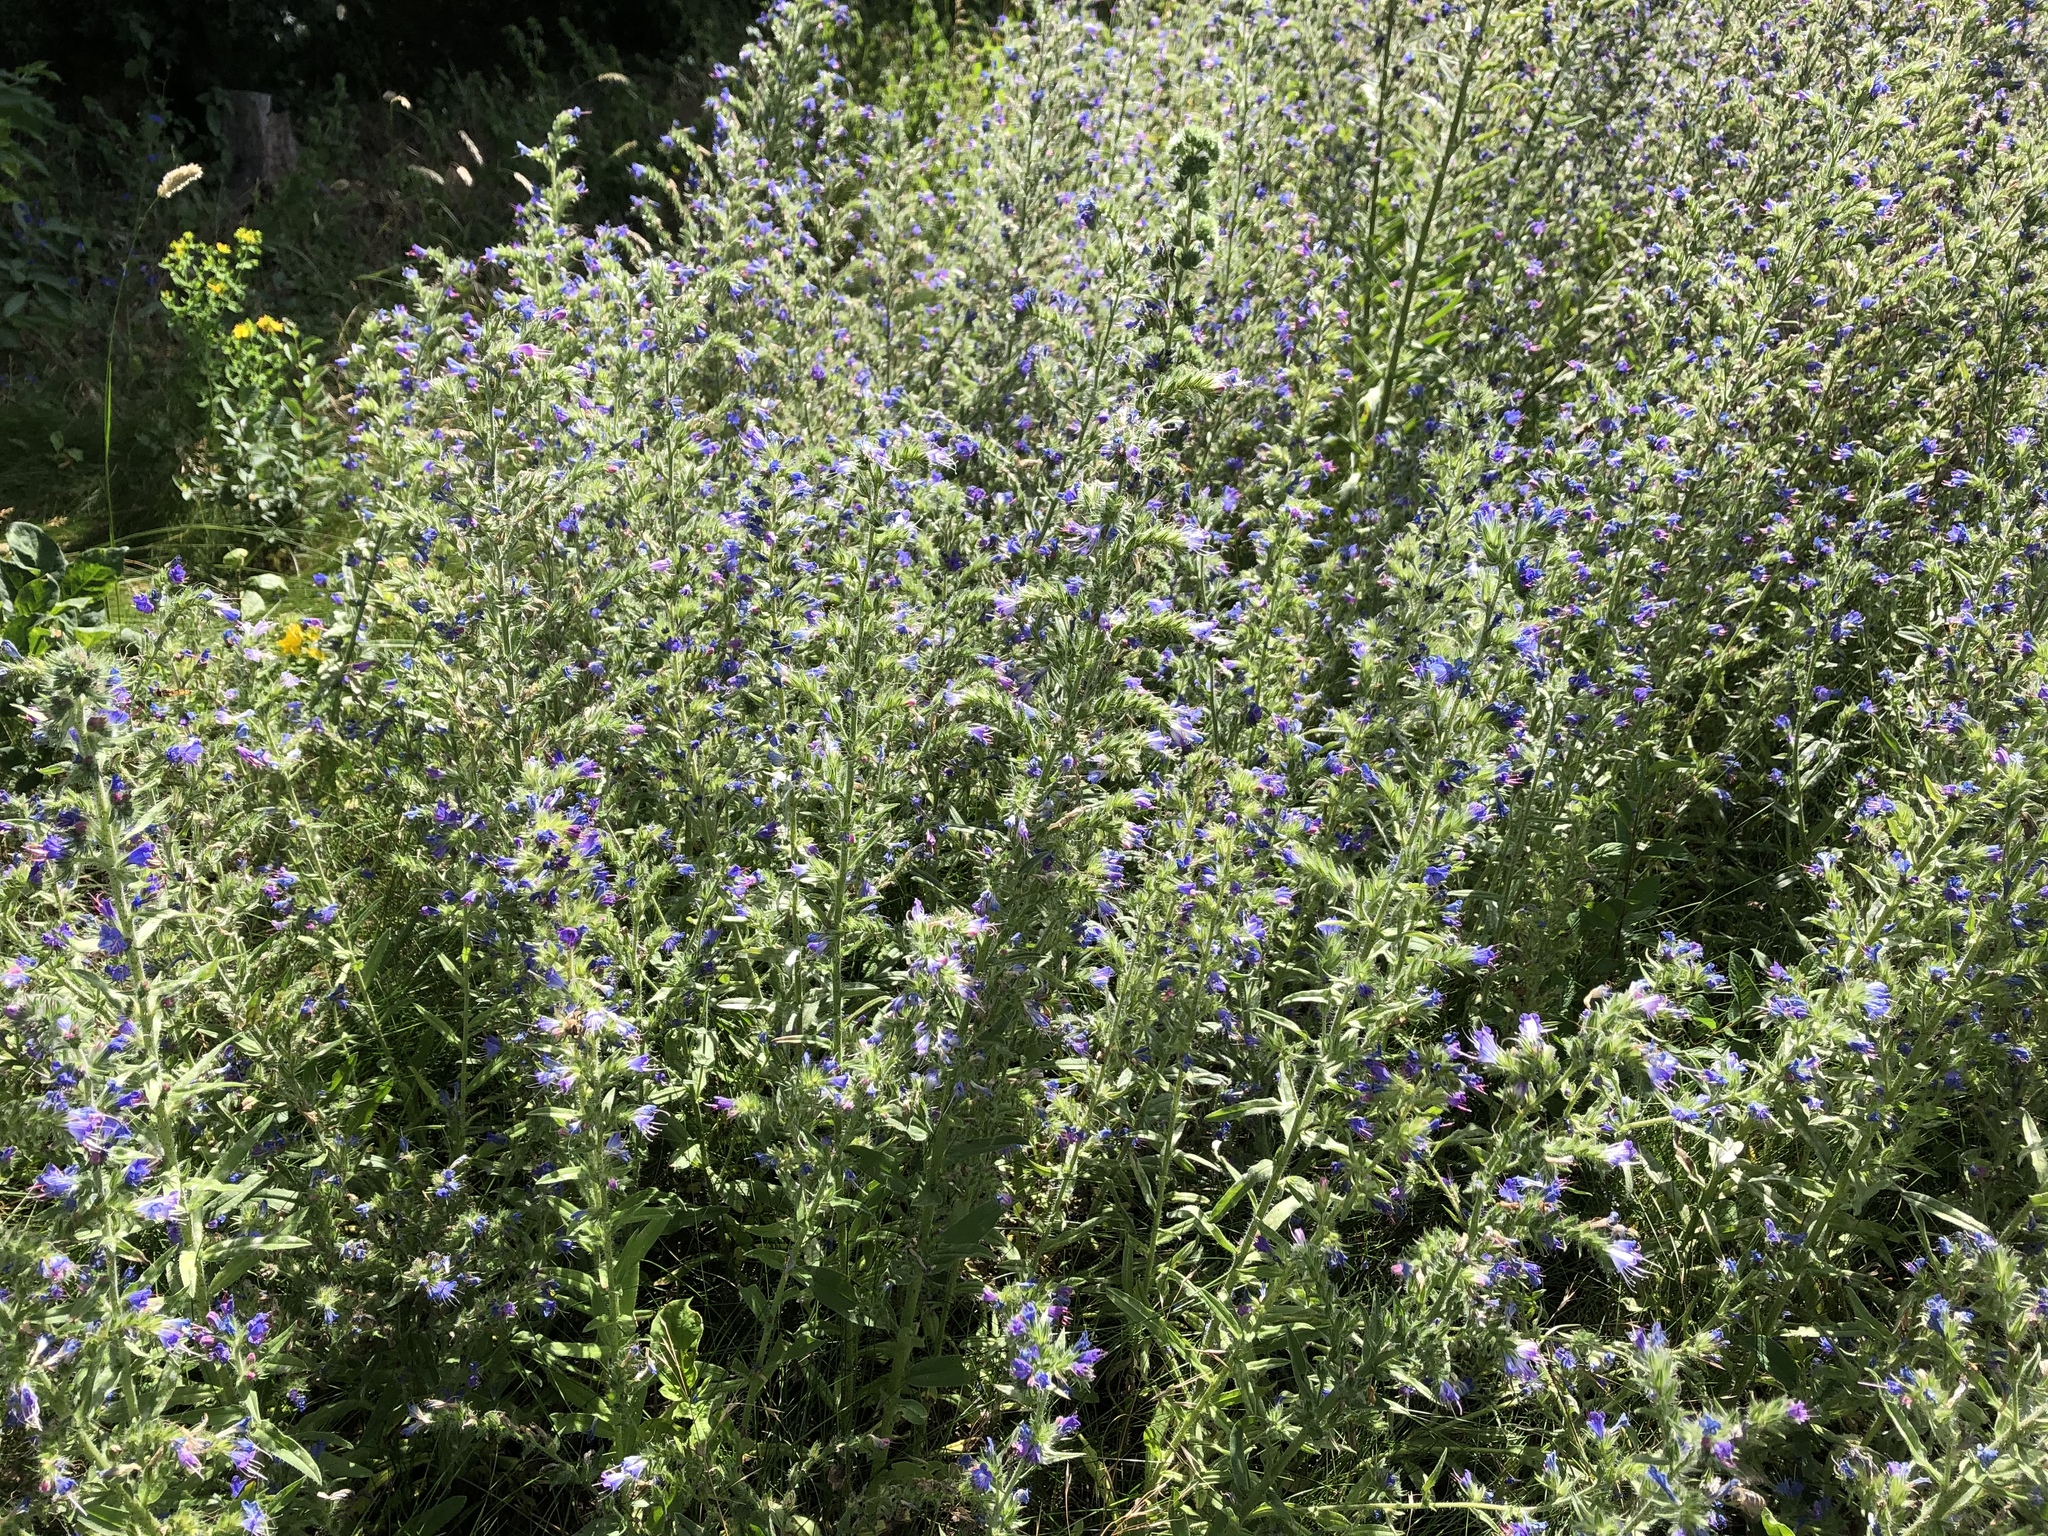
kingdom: Plantae
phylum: Tracheophyta
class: Magnoliopsida
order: Boraginales
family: Boraginaceae
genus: Echium
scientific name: Echium vulgare
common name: Common viper's bugloss
